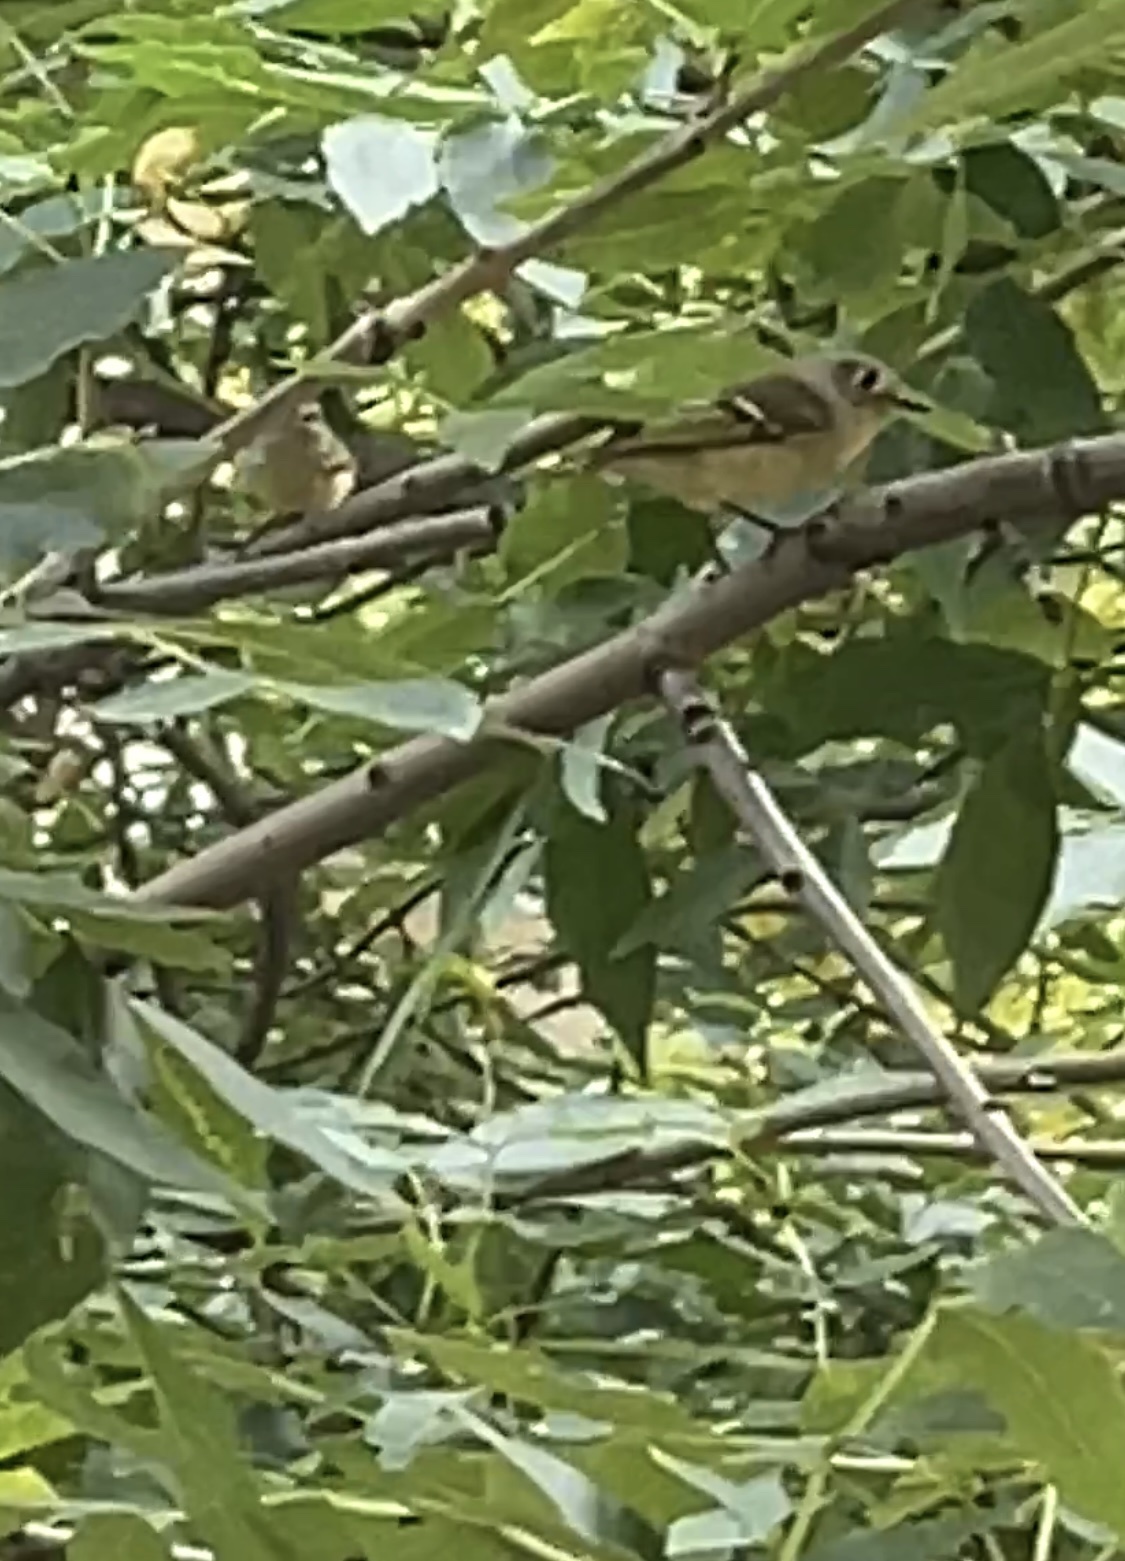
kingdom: Animalia
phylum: Chordata
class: Aves
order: Passeriformes
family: Regulidae
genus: Regulus
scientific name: Regulus calendula
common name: Ruby-crowned kinglet
